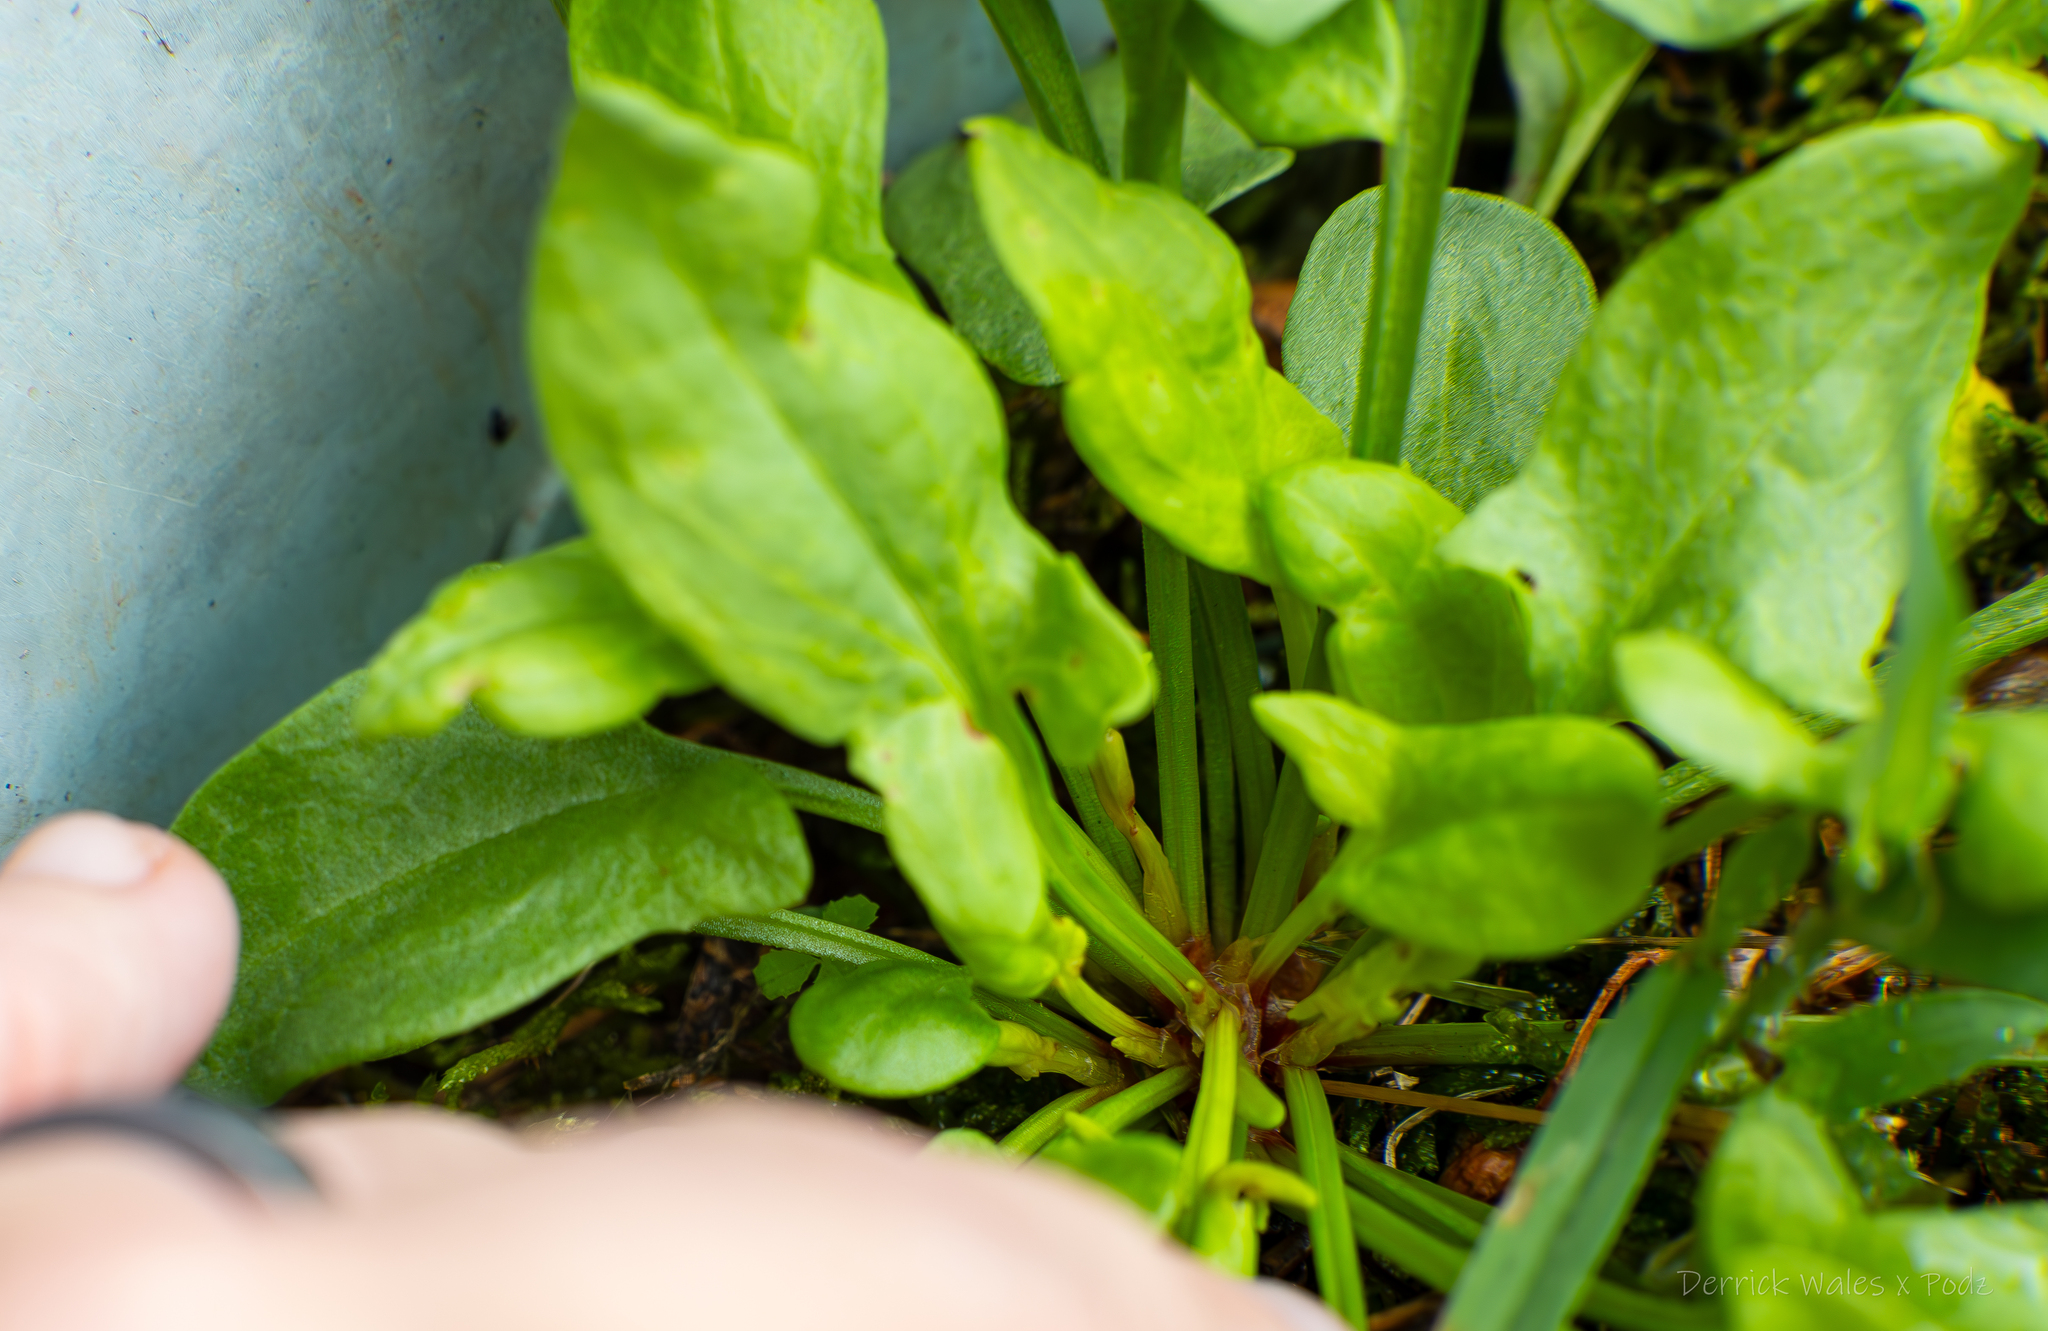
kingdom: Plantae
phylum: Tracheophyta
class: Magnoliopsida
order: Caryophyllales
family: Polygonaceae
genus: Rumex
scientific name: Rumex acetosella
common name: Common sheep sorrel
